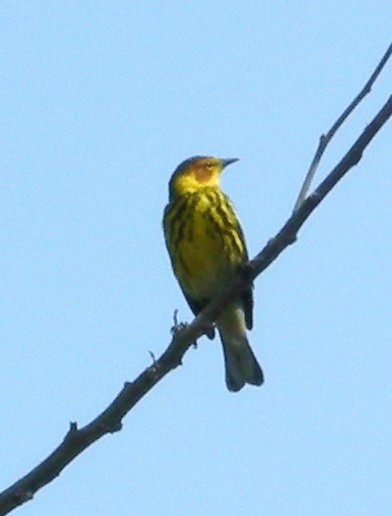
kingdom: Animalia
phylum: Chordata
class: Aves
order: Passeriformes
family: Parulidae
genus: Setophaga
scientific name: Setophaga tigrina
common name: Cape may warbler
